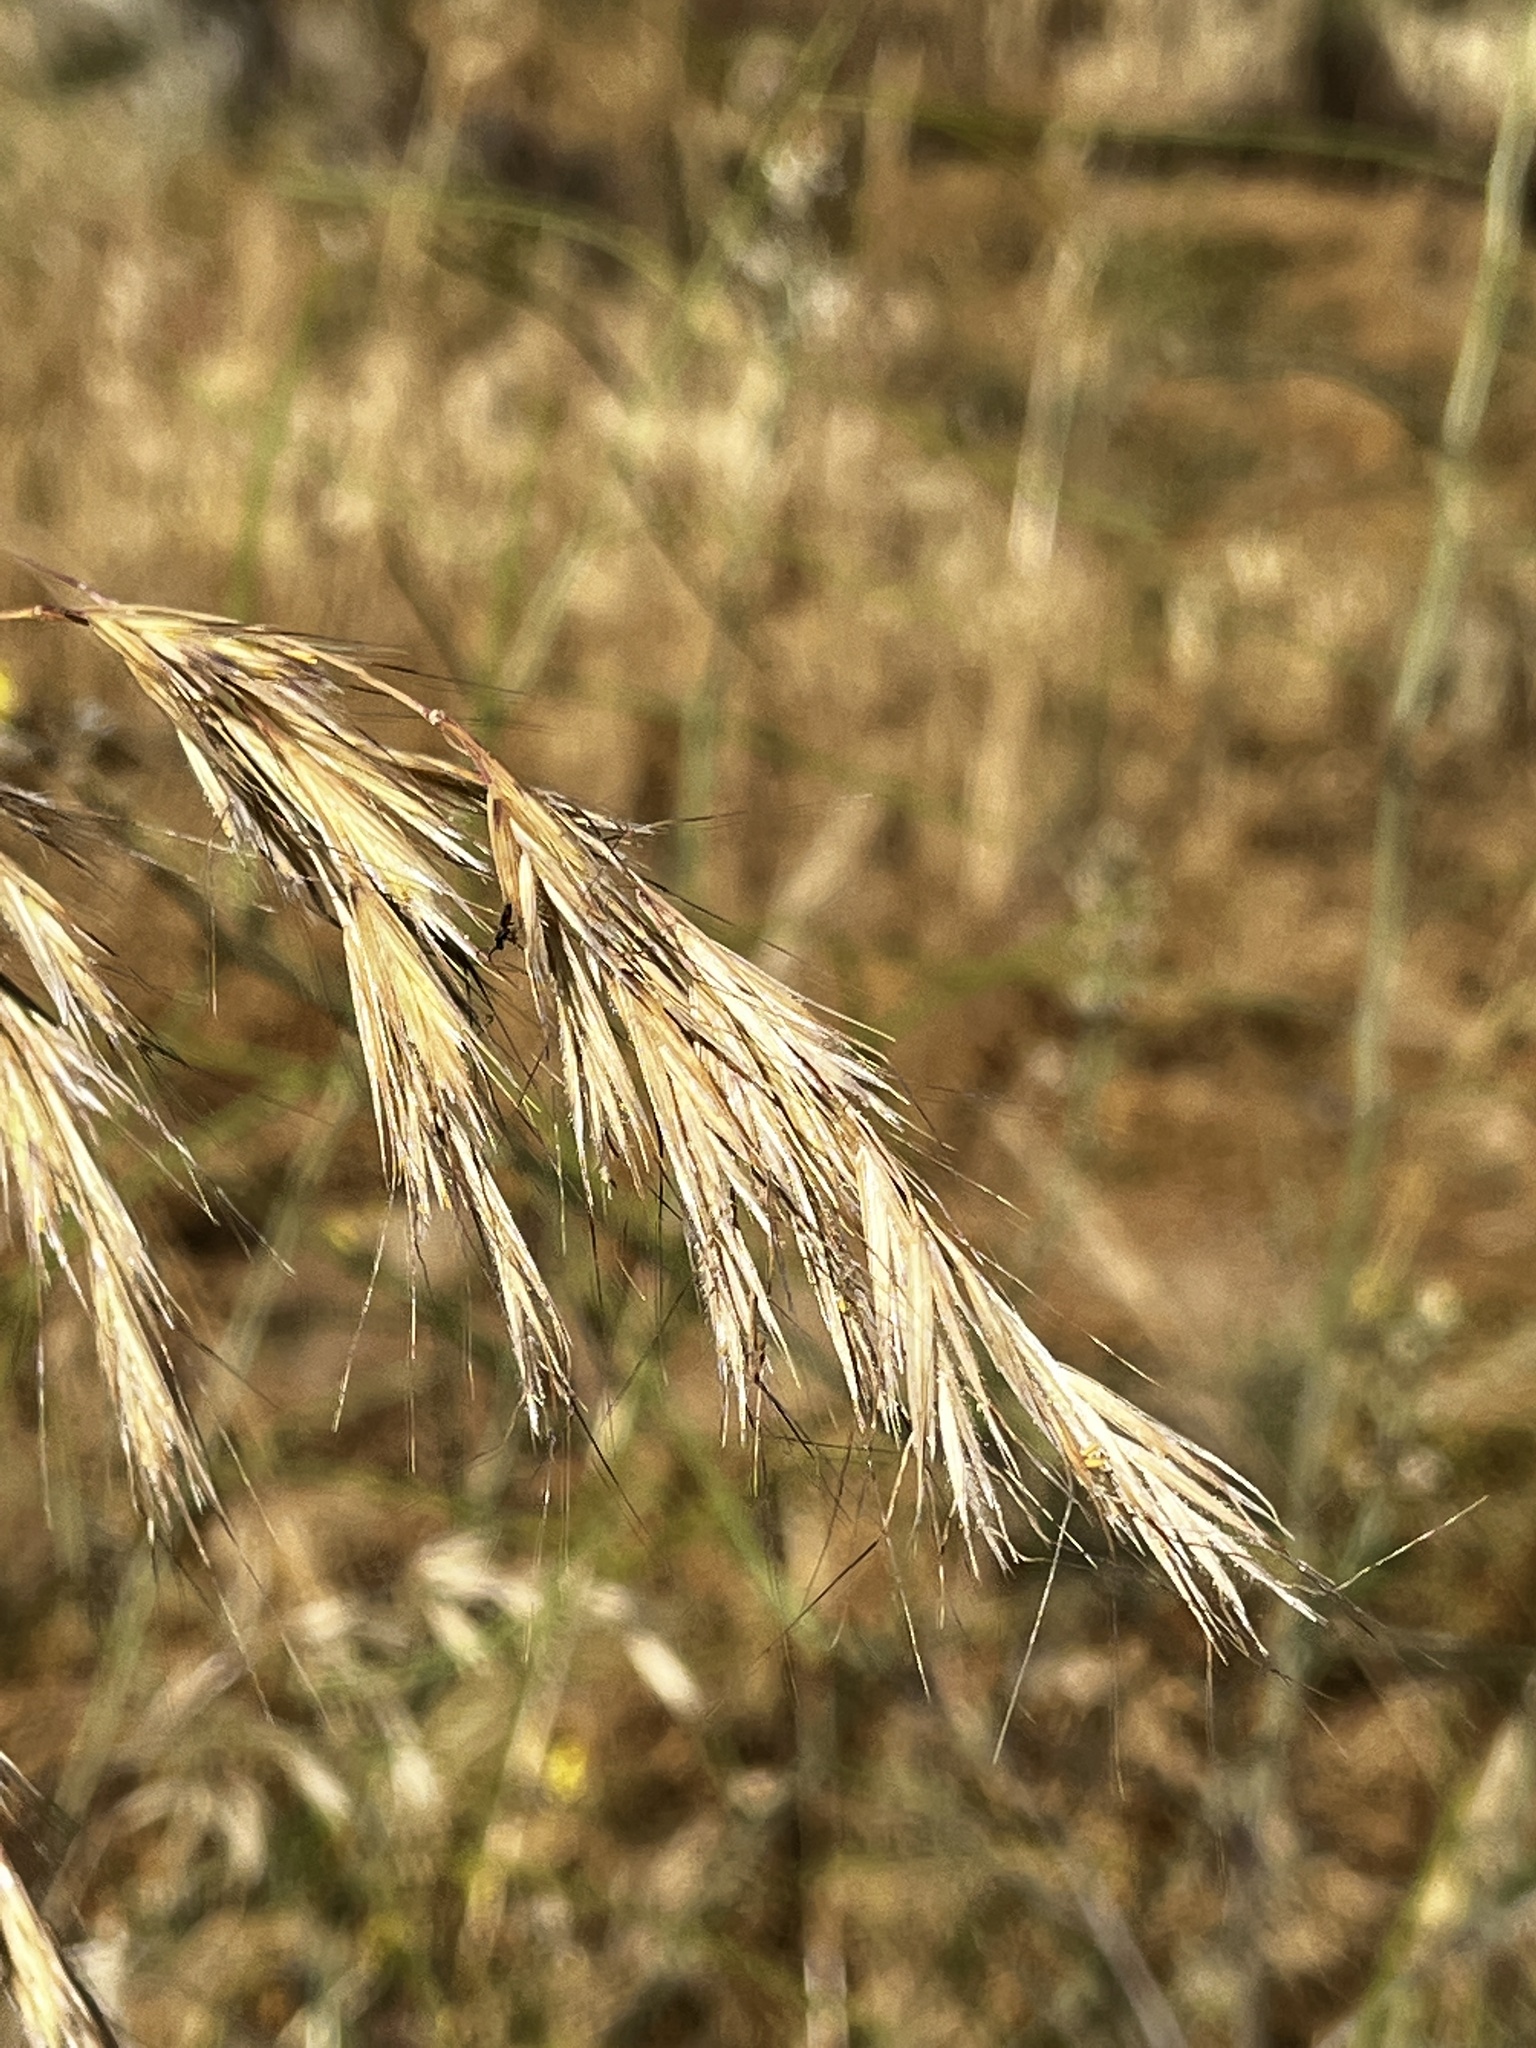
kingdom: Plantae
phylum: Tracheophyta
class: Liliopsida
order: Poales
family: Poaceae
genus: Bromus
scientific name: Bromus berteroanus
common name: Chilean chess
